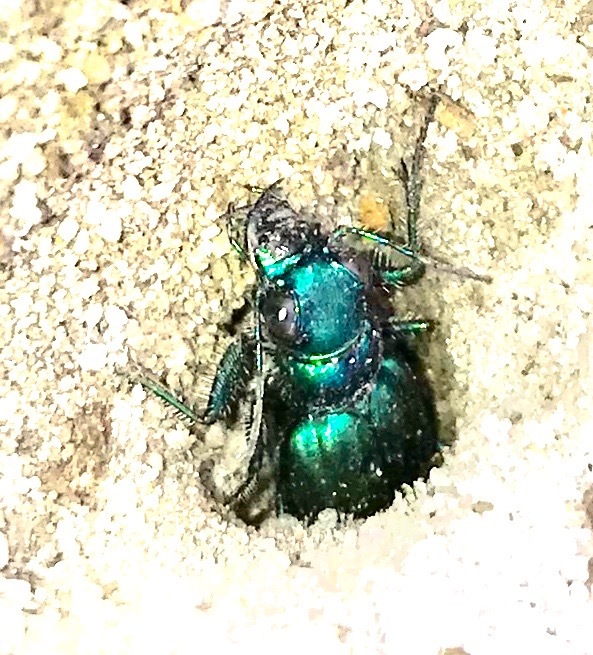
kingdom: Animalia
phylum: Arthropoda
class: Insecta
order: Coleoptera
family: Carabidae
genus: Cicindela
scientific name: Cicindela nigrior
